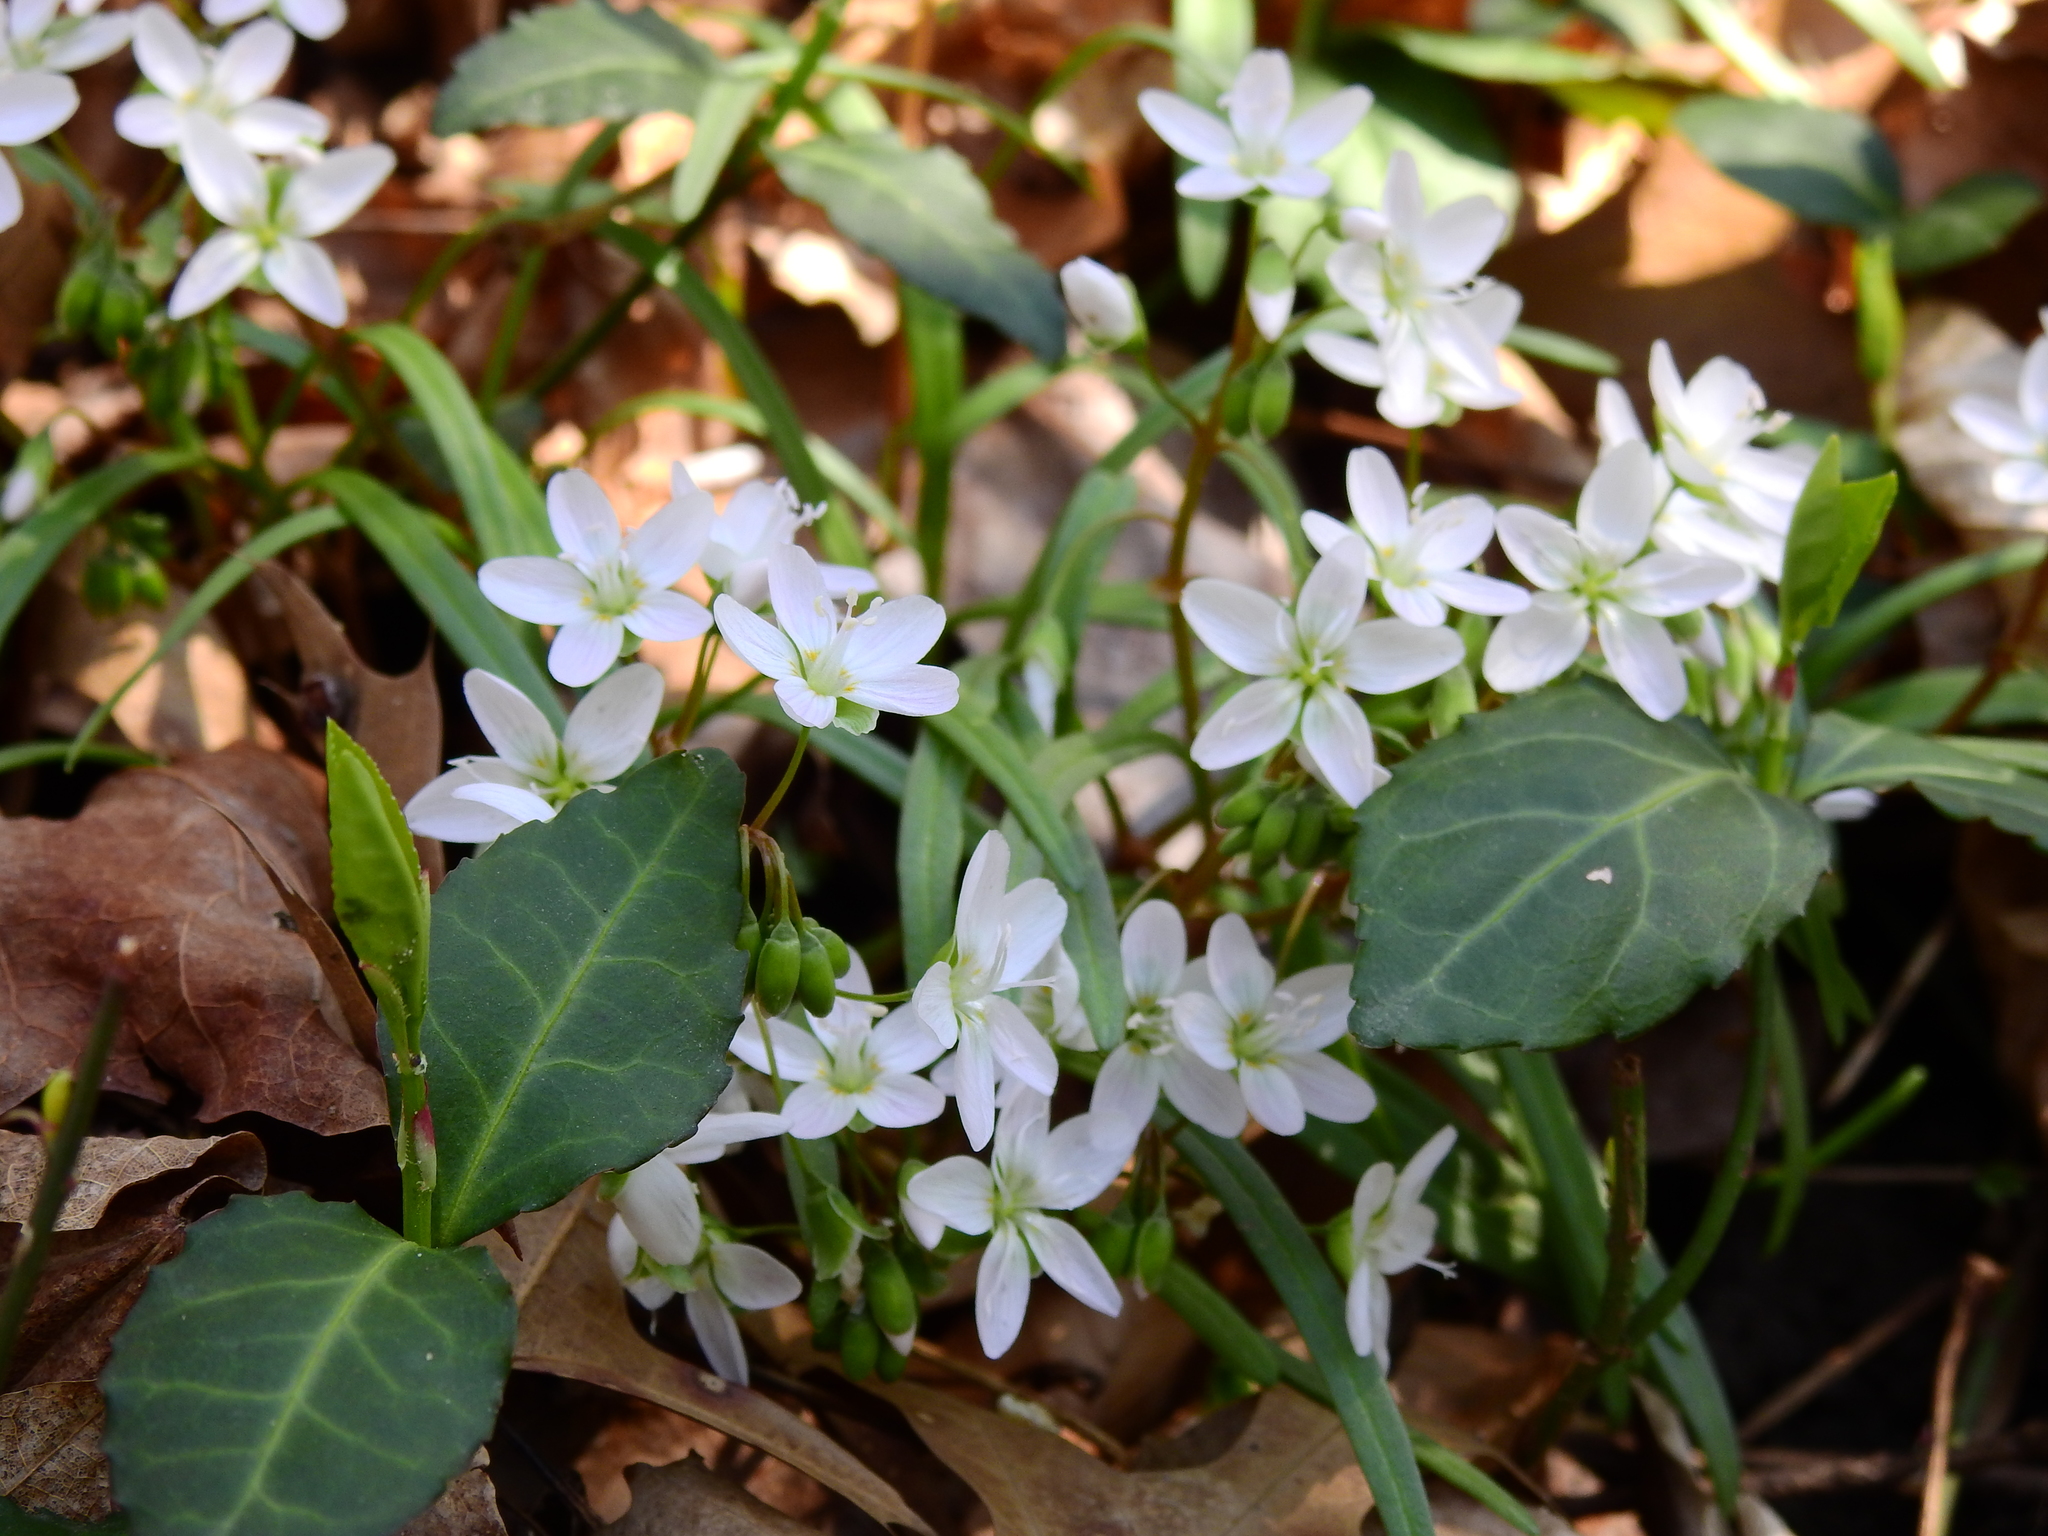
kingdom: Plantae
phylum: Tracheophyta
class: Magnoliopsida
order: Caryophyllales
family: Montiaceae
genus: Claytonia
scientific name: Claytonia virginica
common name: Virginia springbeauty
